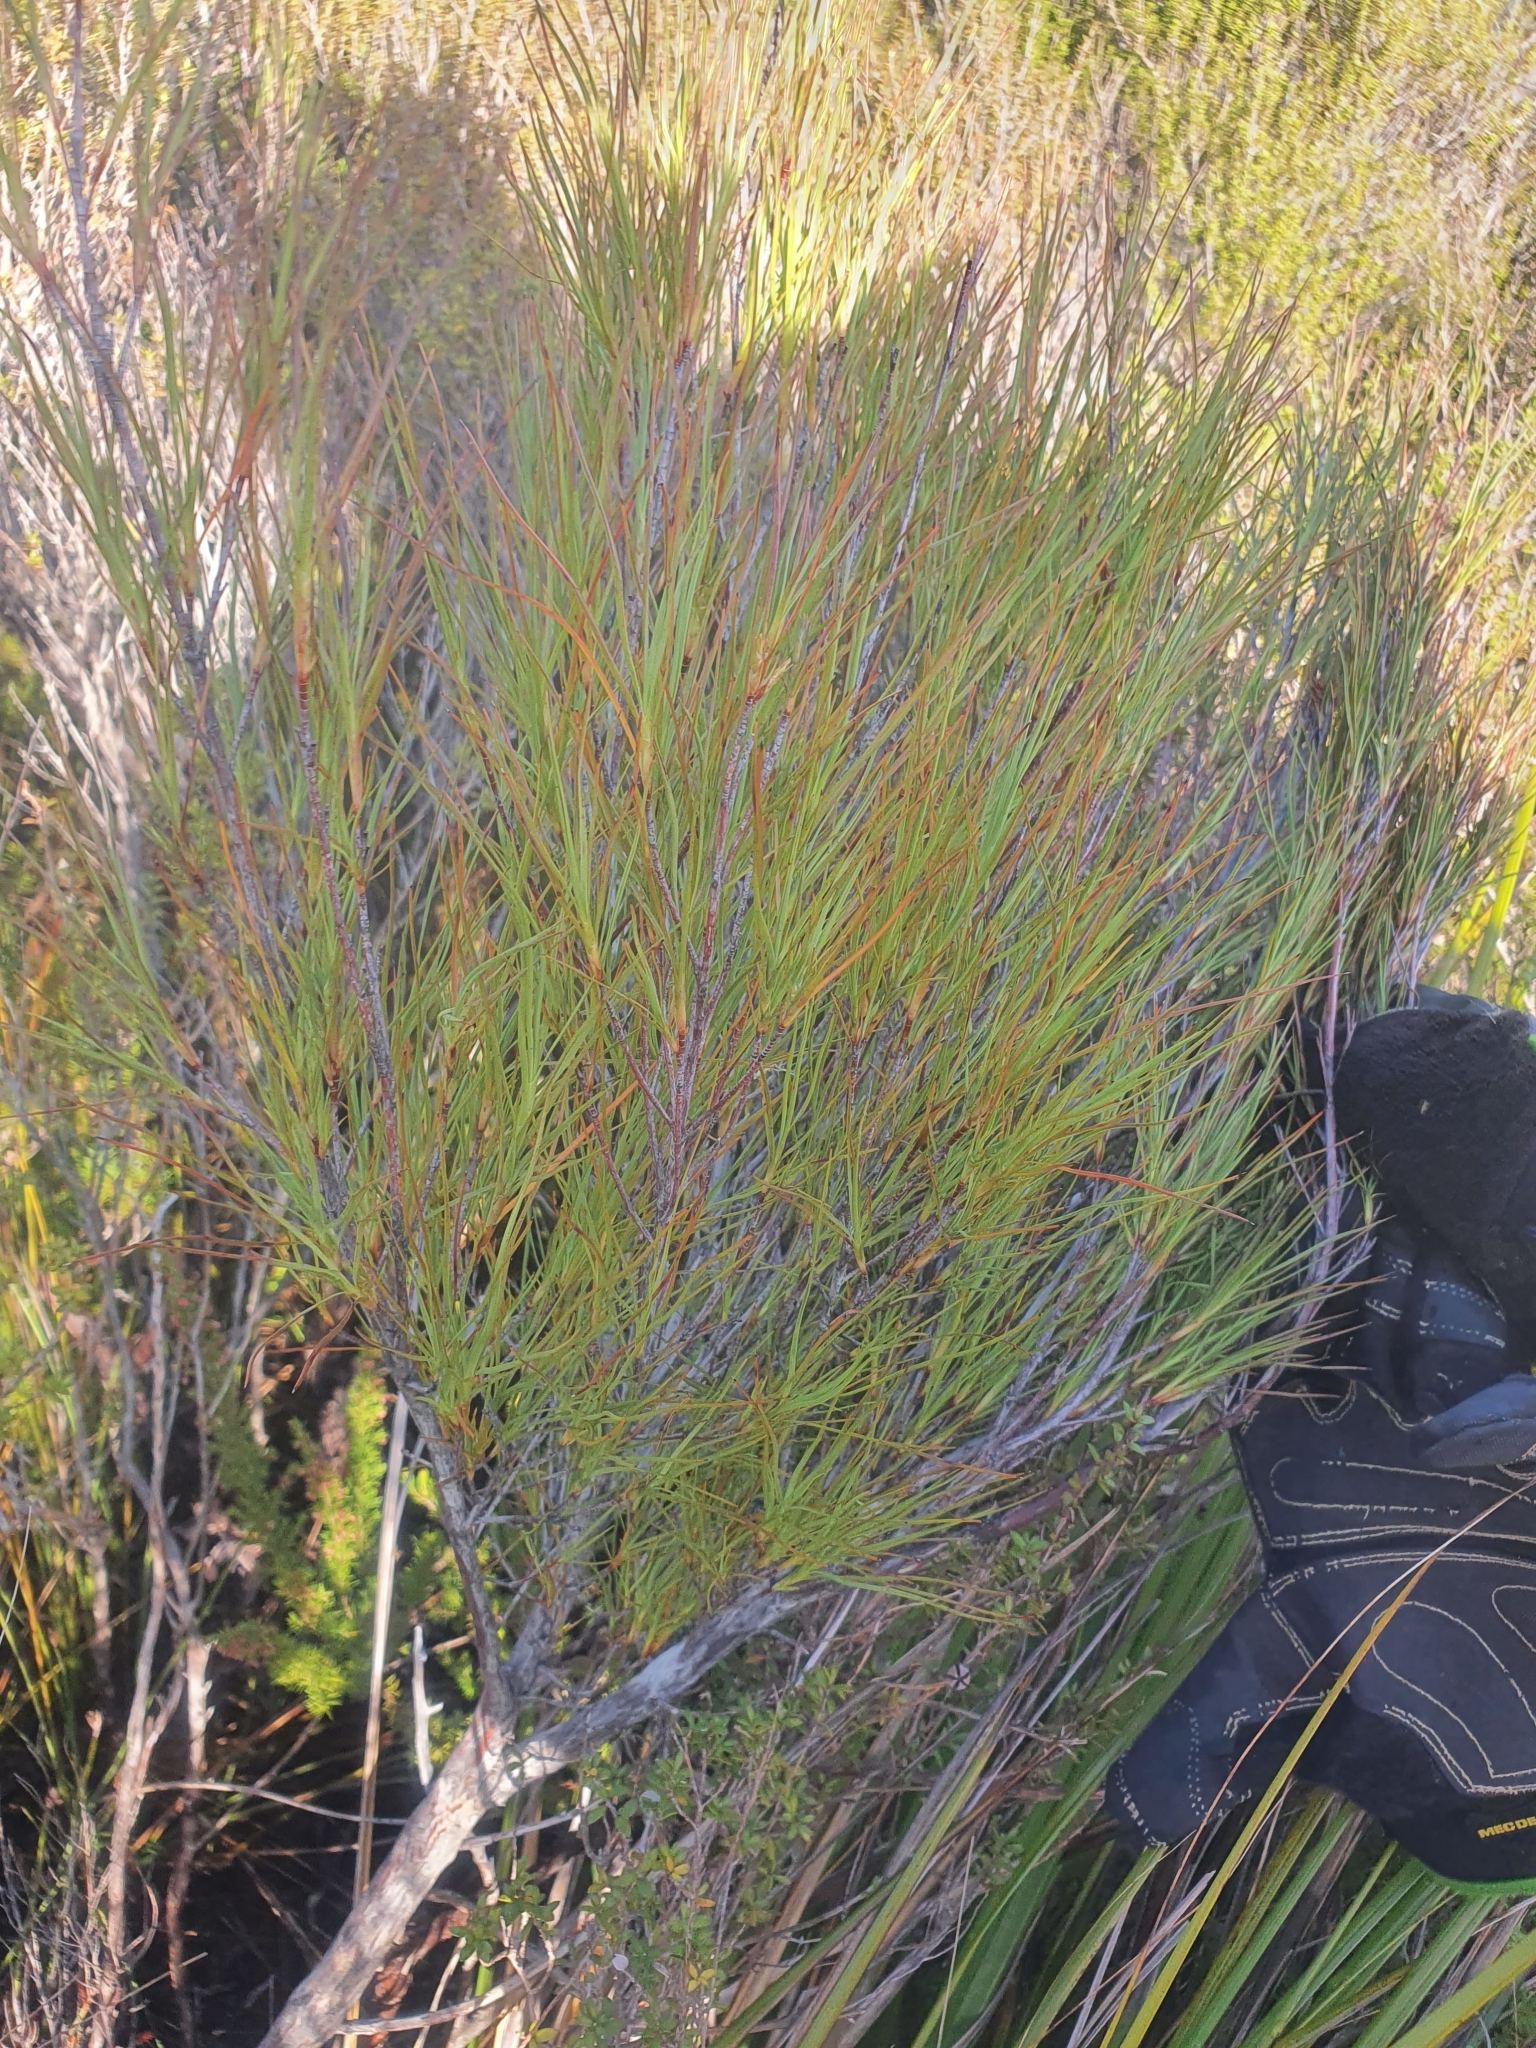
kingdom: Plantae
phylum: Tracheophyta
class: Magnoliopsida
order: Ericales
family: Ericaceae
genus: Dracophyllum
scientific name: Dracophyllum filifolium
